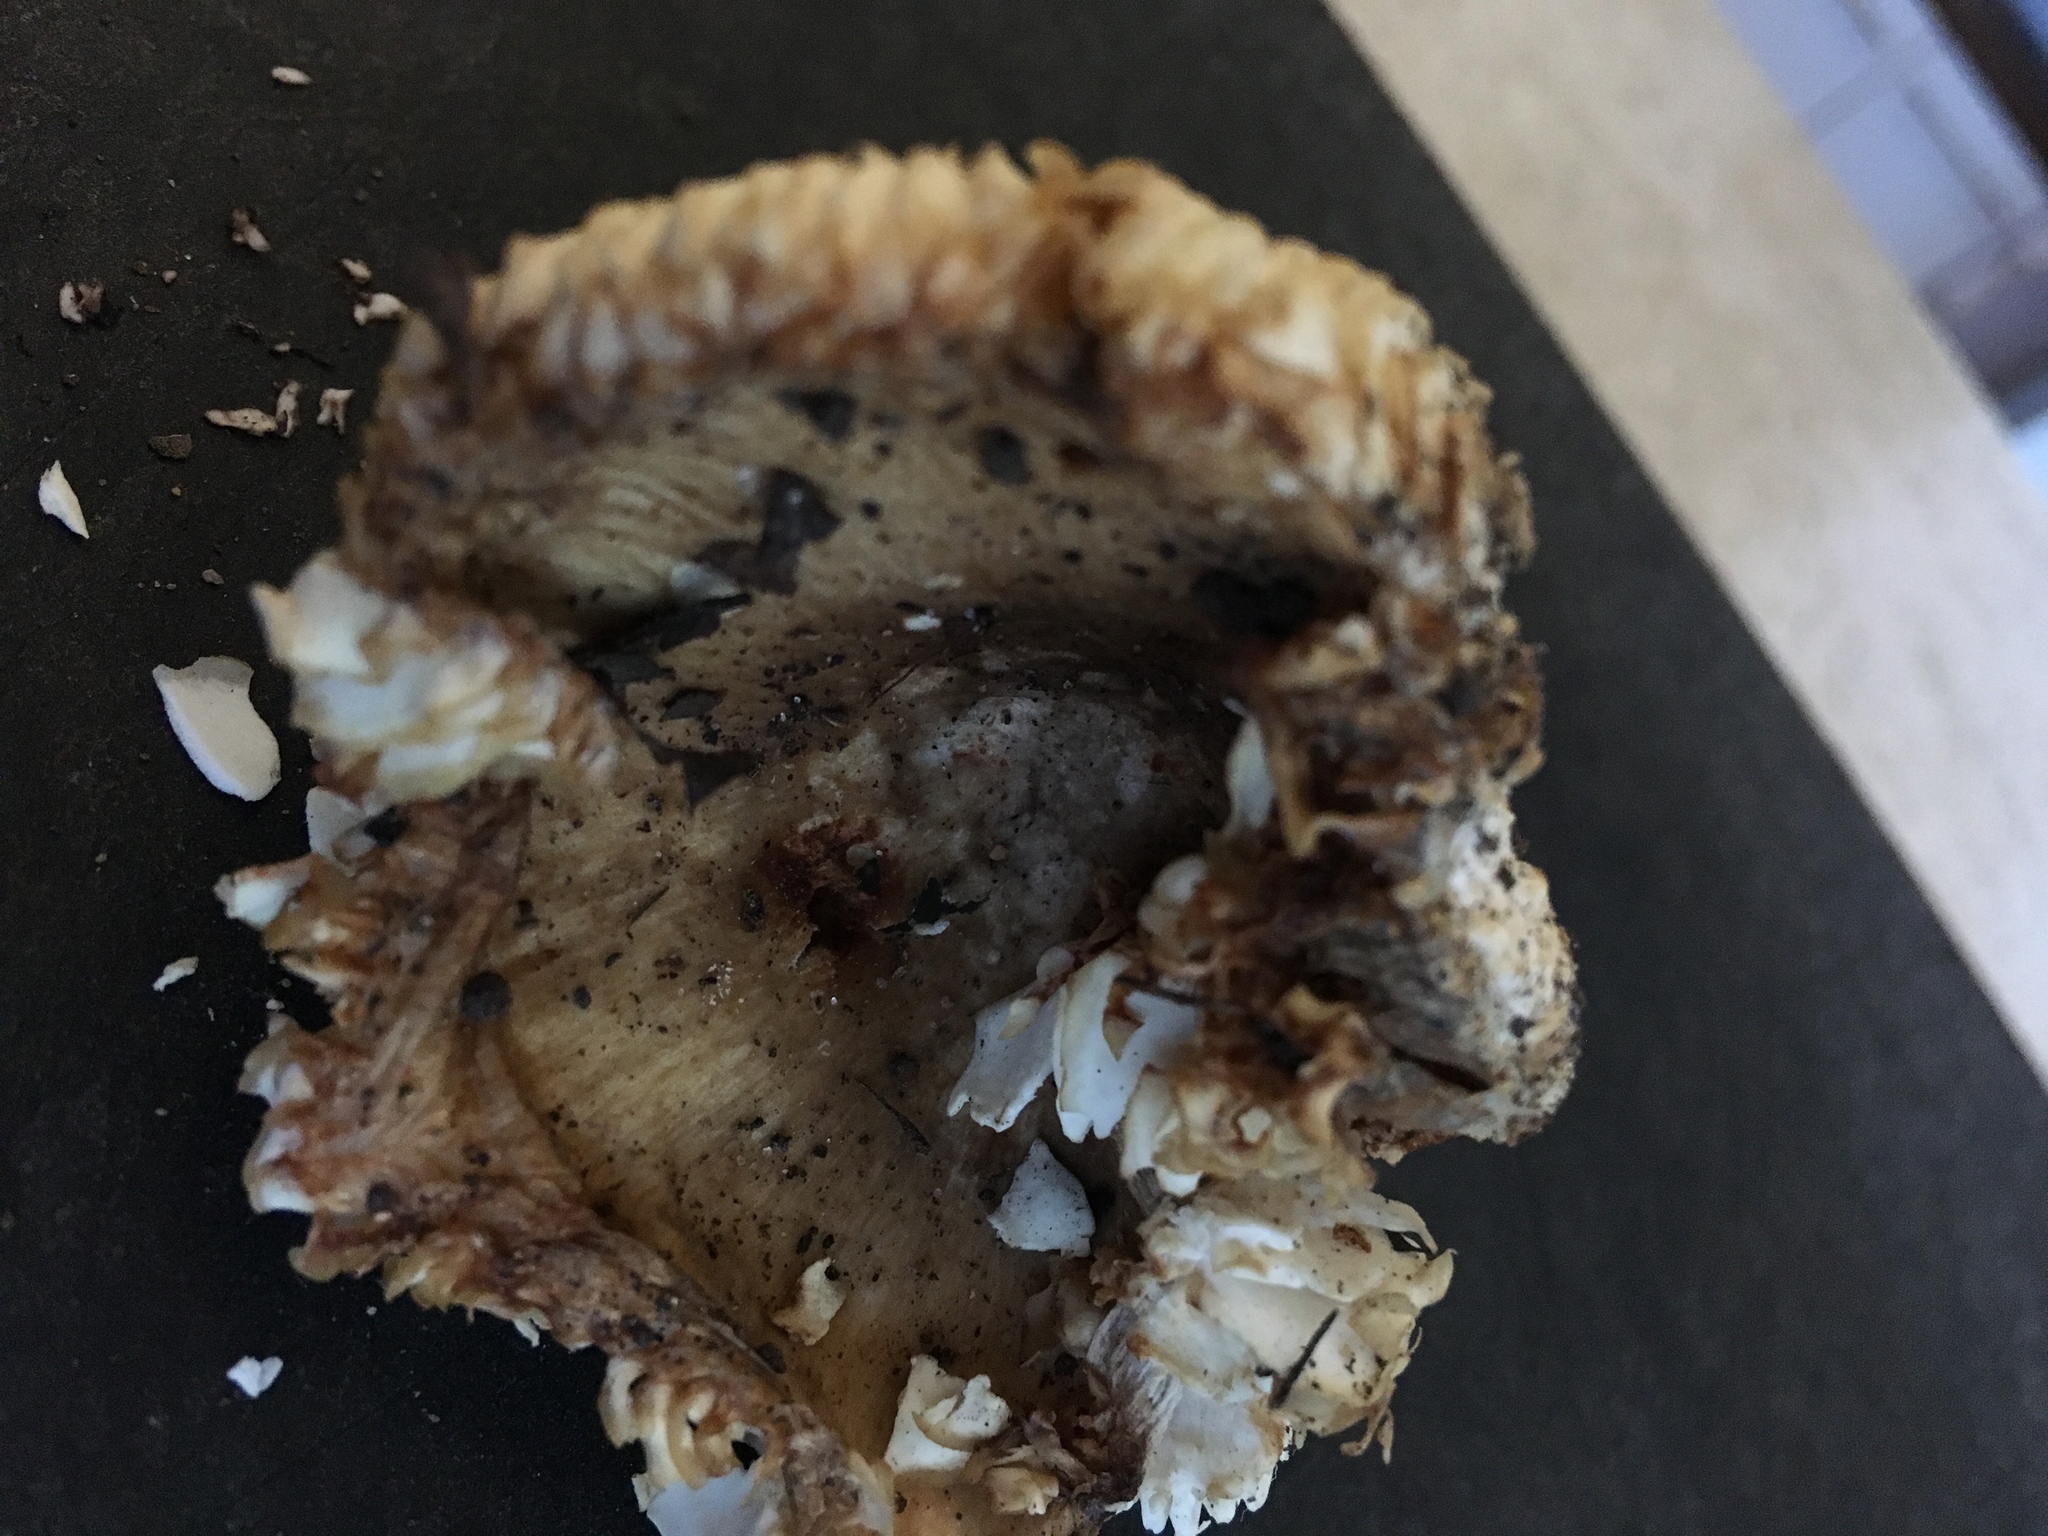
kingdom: Fungi
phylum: Basidiomycota
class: Agaricomycetes
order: Russulales
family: Russulaceae
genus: Russula
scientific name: Russula amoenolens
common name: Camembert brittlegill
